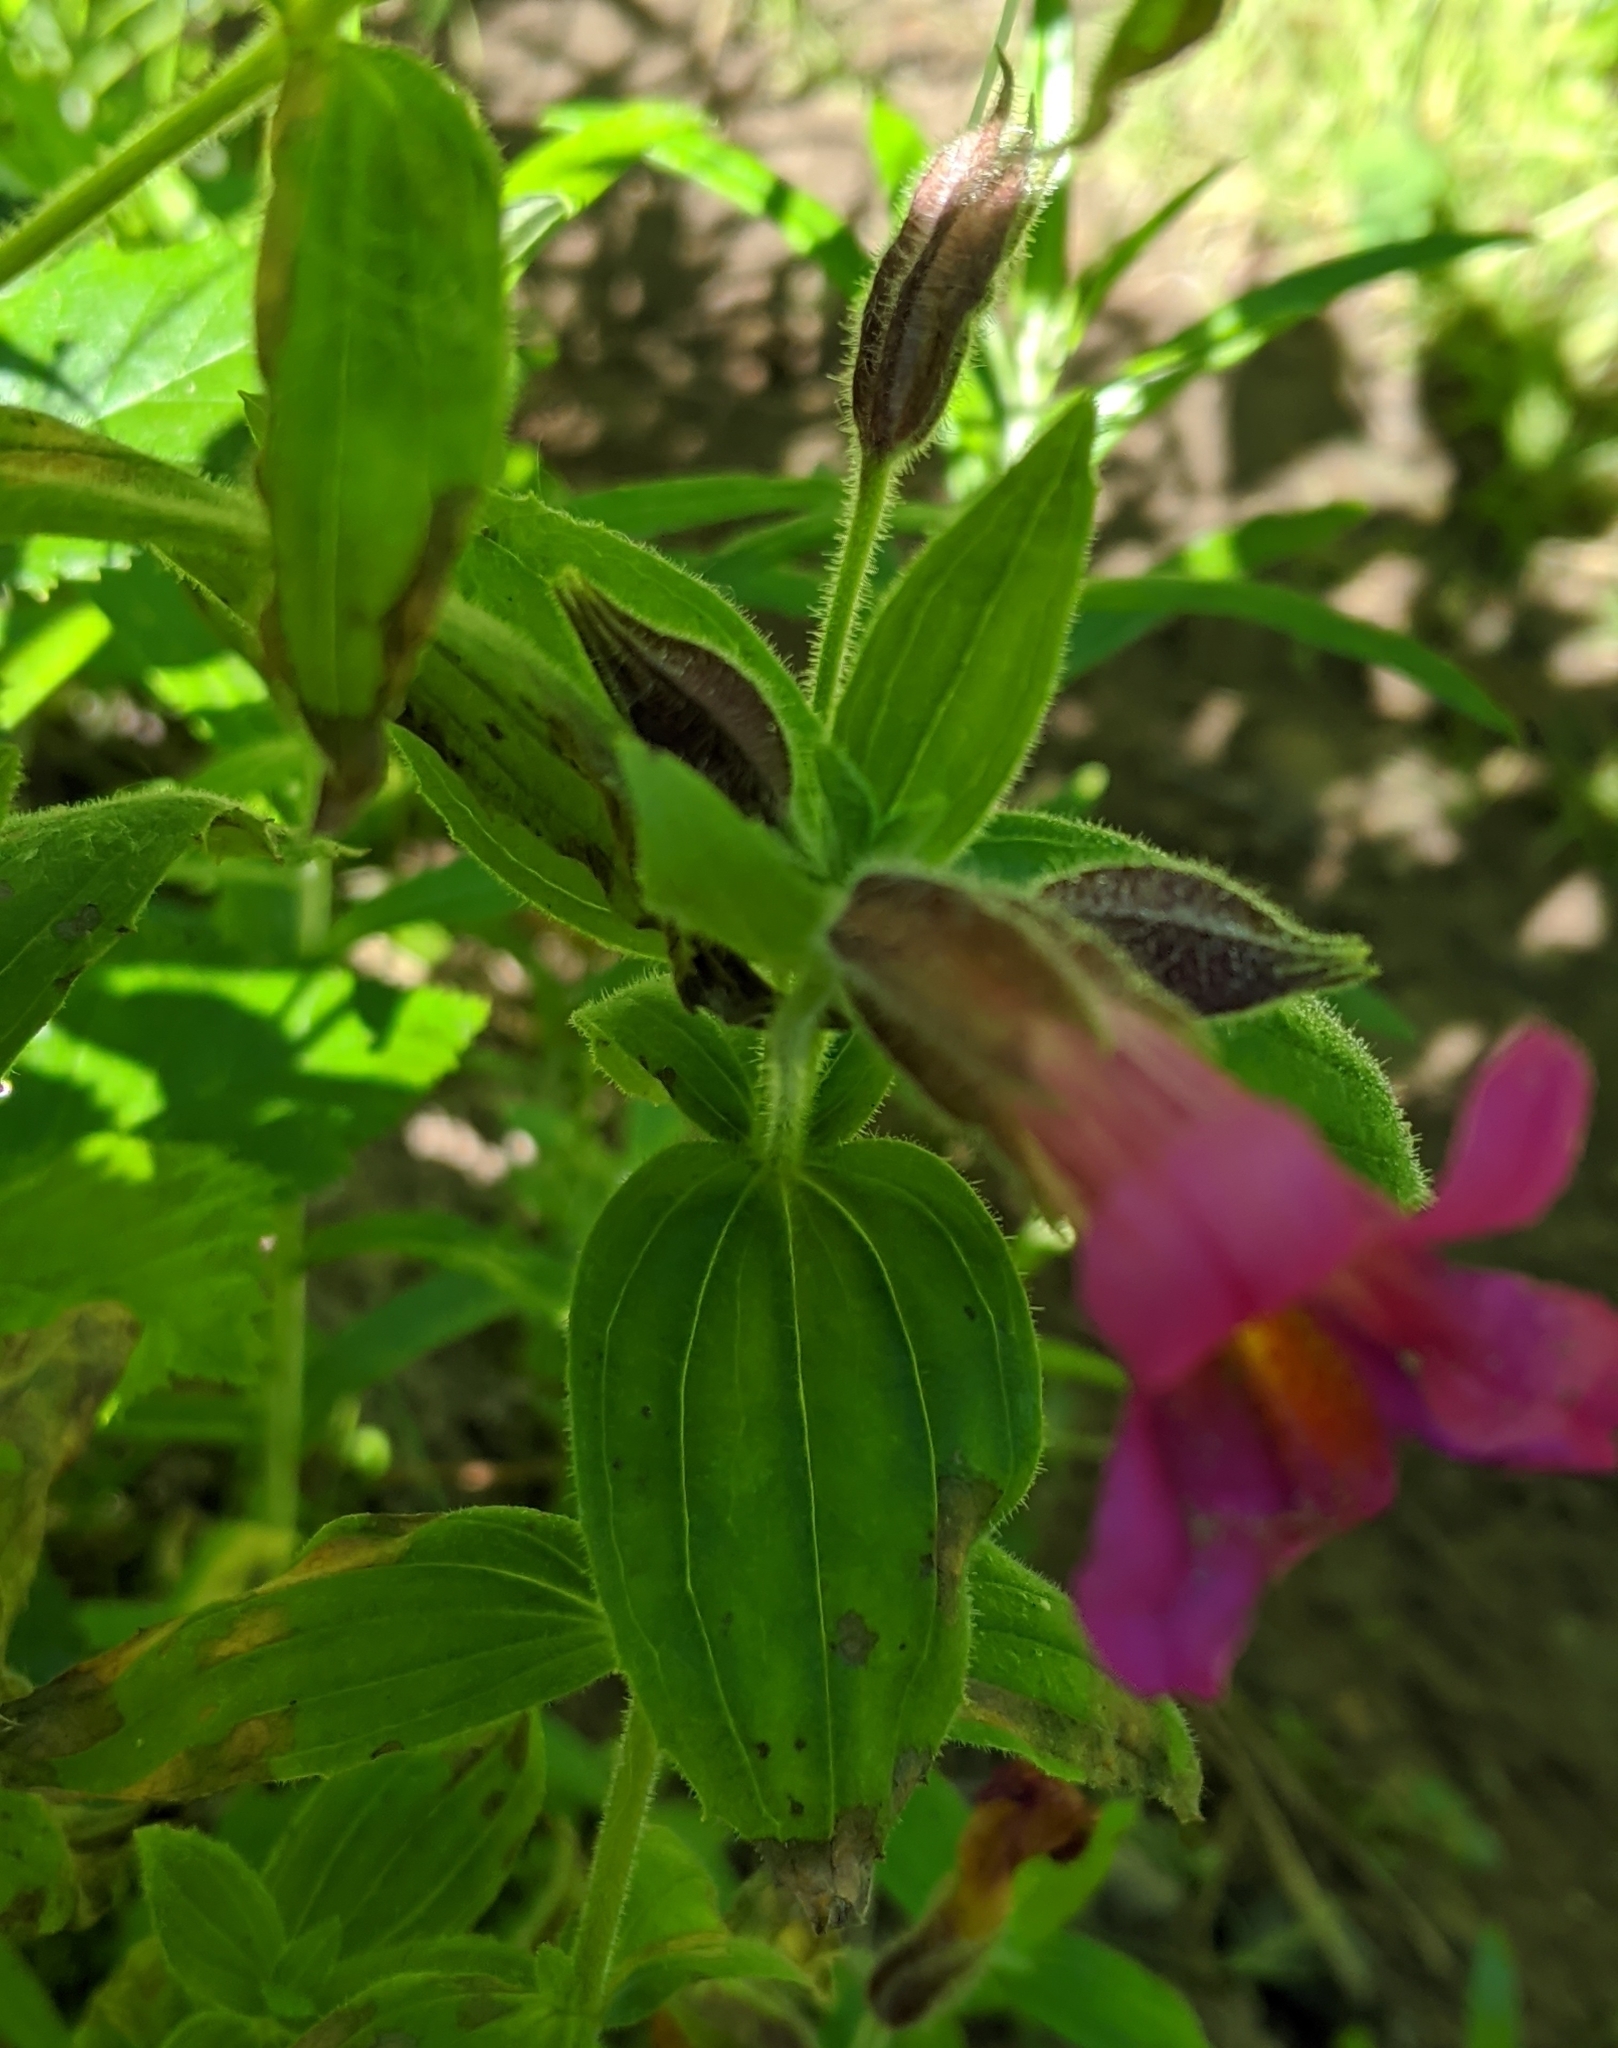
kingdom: Plantae
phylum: Tracheophyta
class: Magnoliopsida
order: Lamiales
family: Phrymaceae
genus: Erythranthe
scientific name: Erythranthe lewisii
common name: Lewis's monkey-flower
